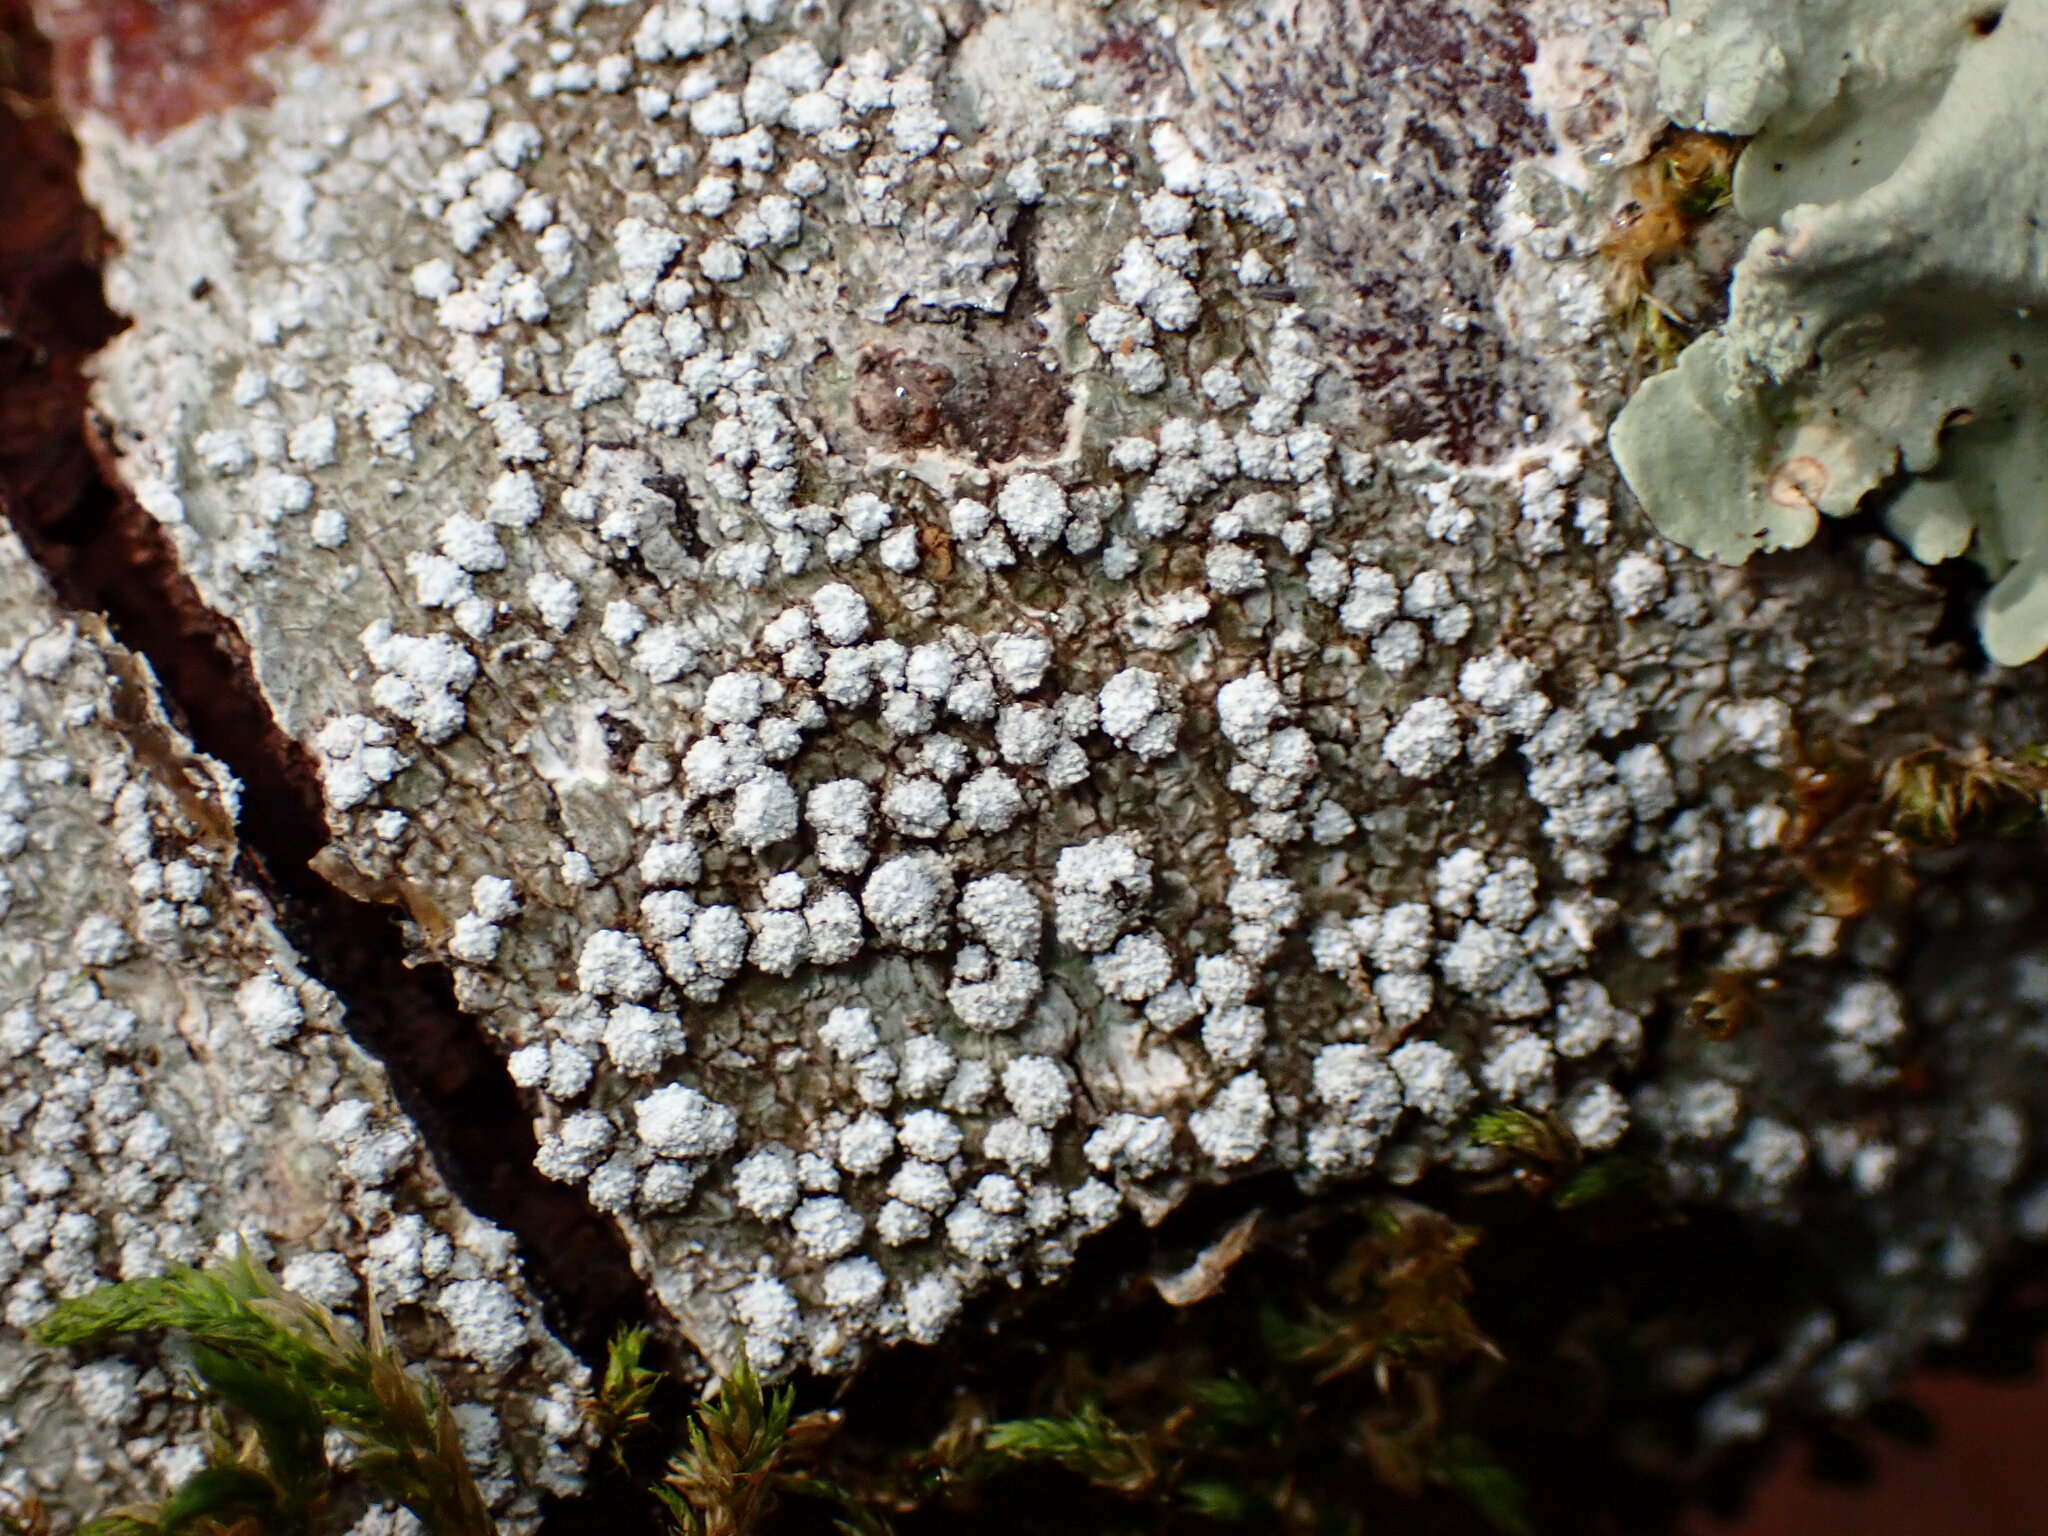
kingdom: Fungi
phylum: Ascomycota
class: Lecanoromycetes
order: Pertusariales
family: Pertusariaceae
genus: Lepra
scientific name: Lepra amara
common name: Bitter wart lichen
